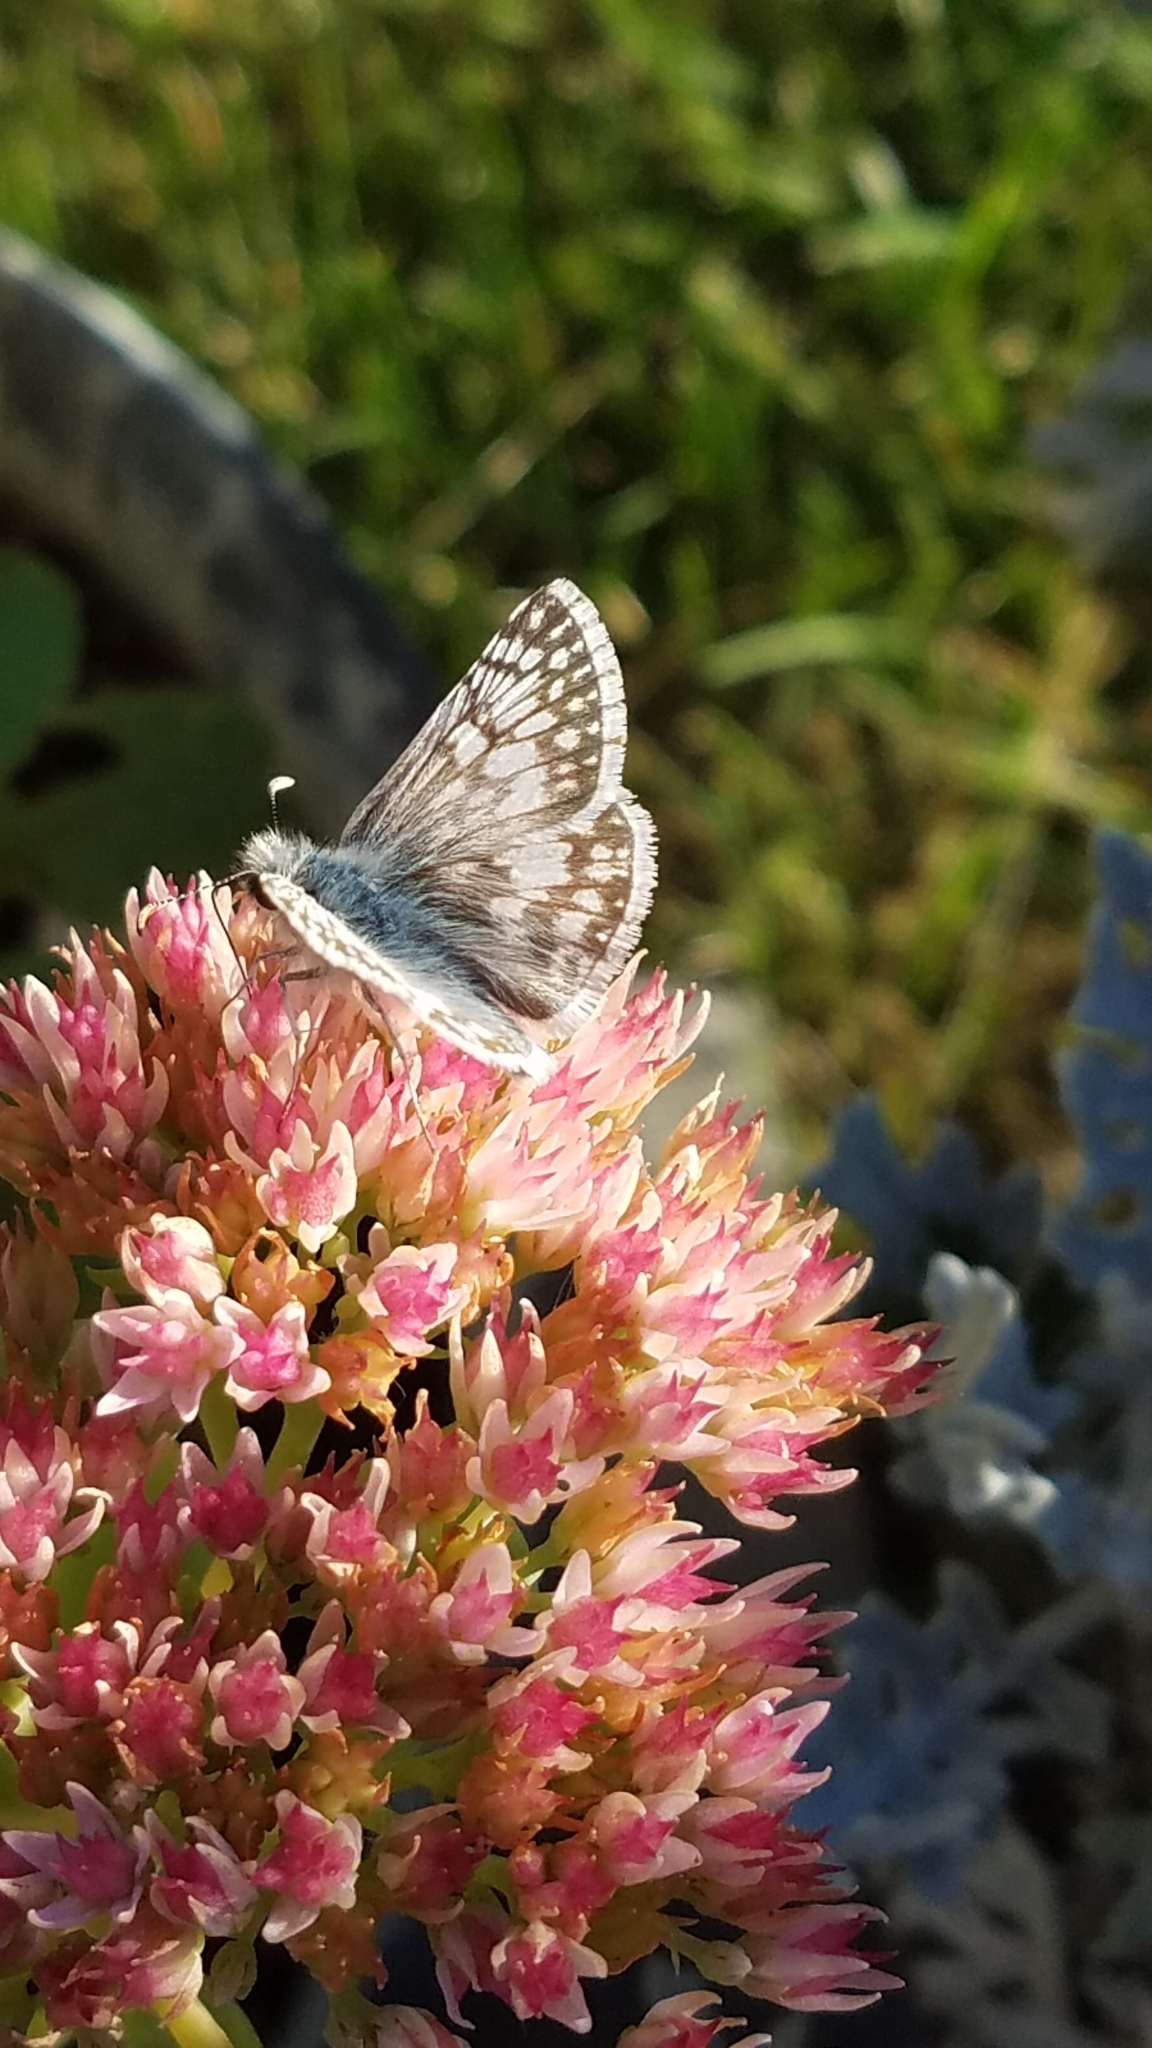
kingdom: Animalia
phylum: Arthropoda
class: Insecta
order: Lepidoptera
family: Hesperiidae
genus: Burnsius
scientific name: Burnsius communis
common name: Common checkered-skipper
